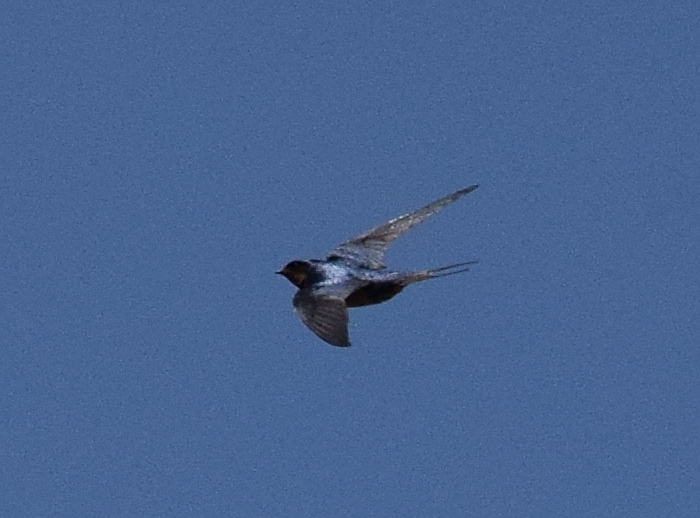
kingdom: Animalia
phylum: Chordata
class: Aves
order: Passeriformes
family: Hirundinidae
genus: Hirundo
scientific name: Hirundo rustica
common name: Barn swallow
